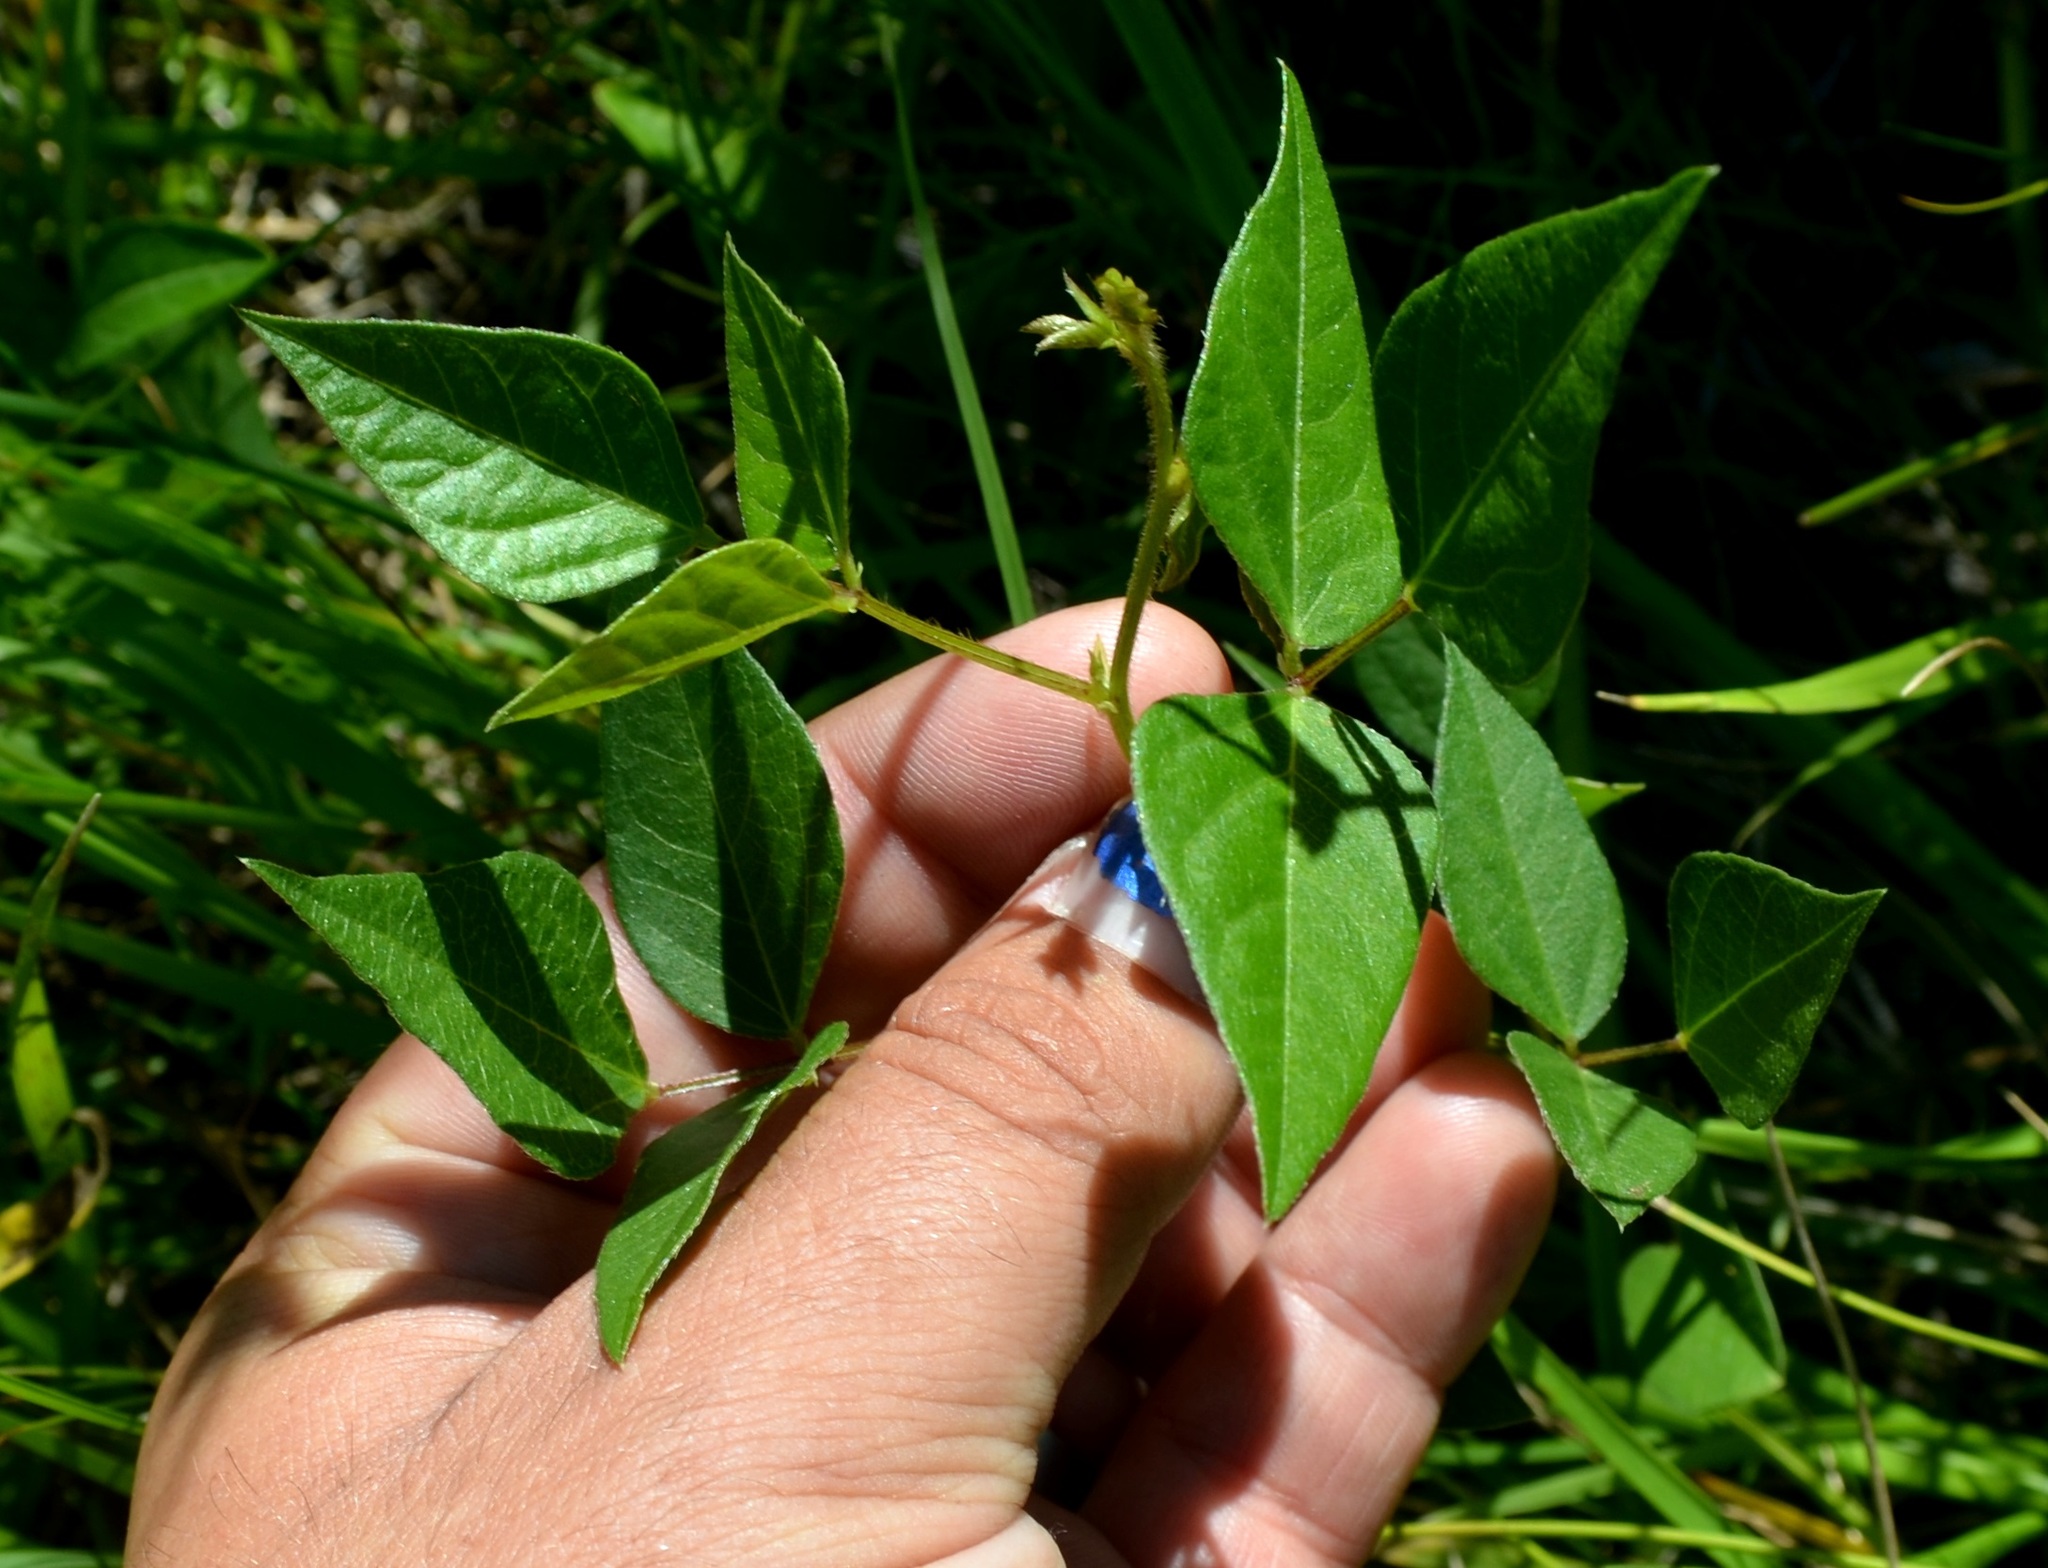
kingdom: Plantae
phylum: Tracheophyta
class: Magnoliopsida
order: Fabales
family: Fabaceae
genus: Apios
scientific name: Apios americana
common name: American potato-bean
